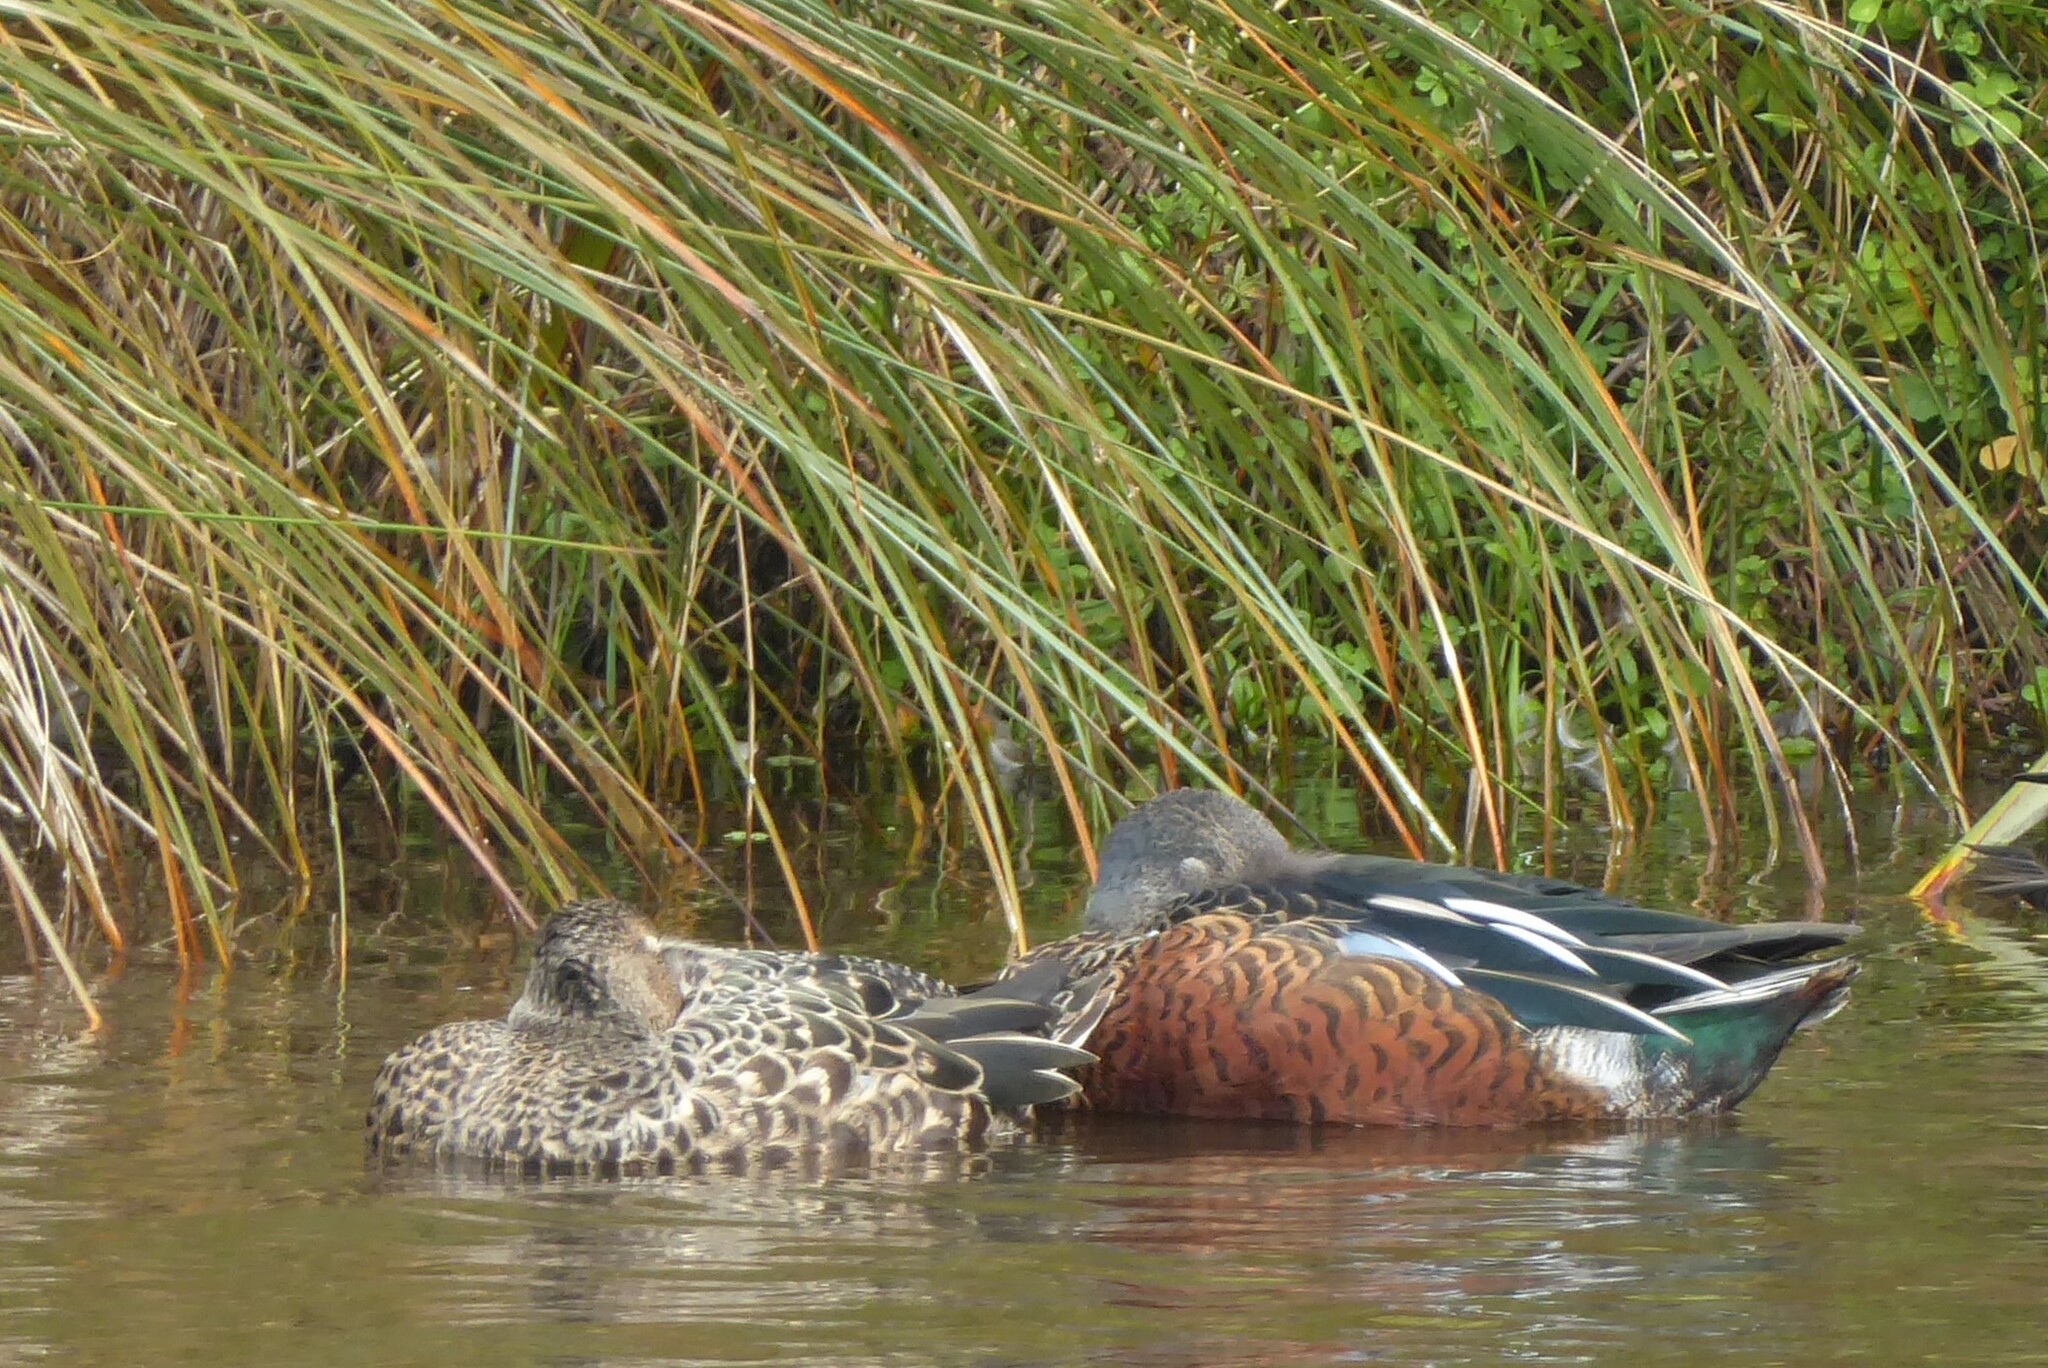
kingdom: Animalia
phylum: Chordata
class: Aves
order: Anseriformes
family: Anatidae
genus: Spatula
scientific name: Spatula rhynchotis
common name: Australian shoveler
